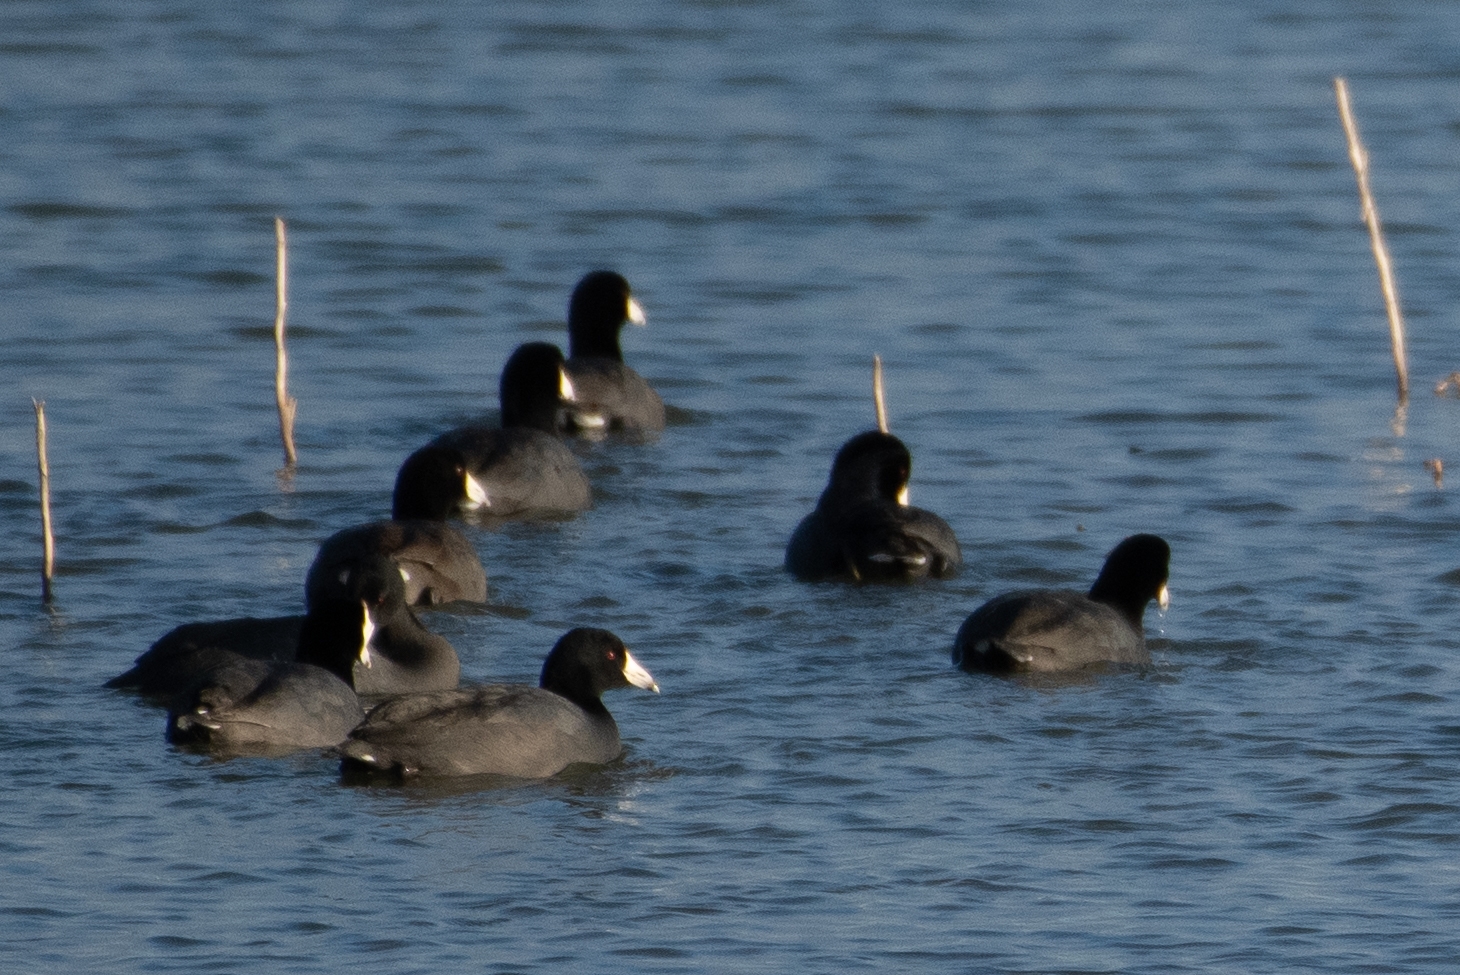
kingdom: Animalia
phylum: Chordata
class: Aves
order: Gruiformes
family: Rallidae
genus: Fulica
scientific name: Fulica americana
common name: American coot
